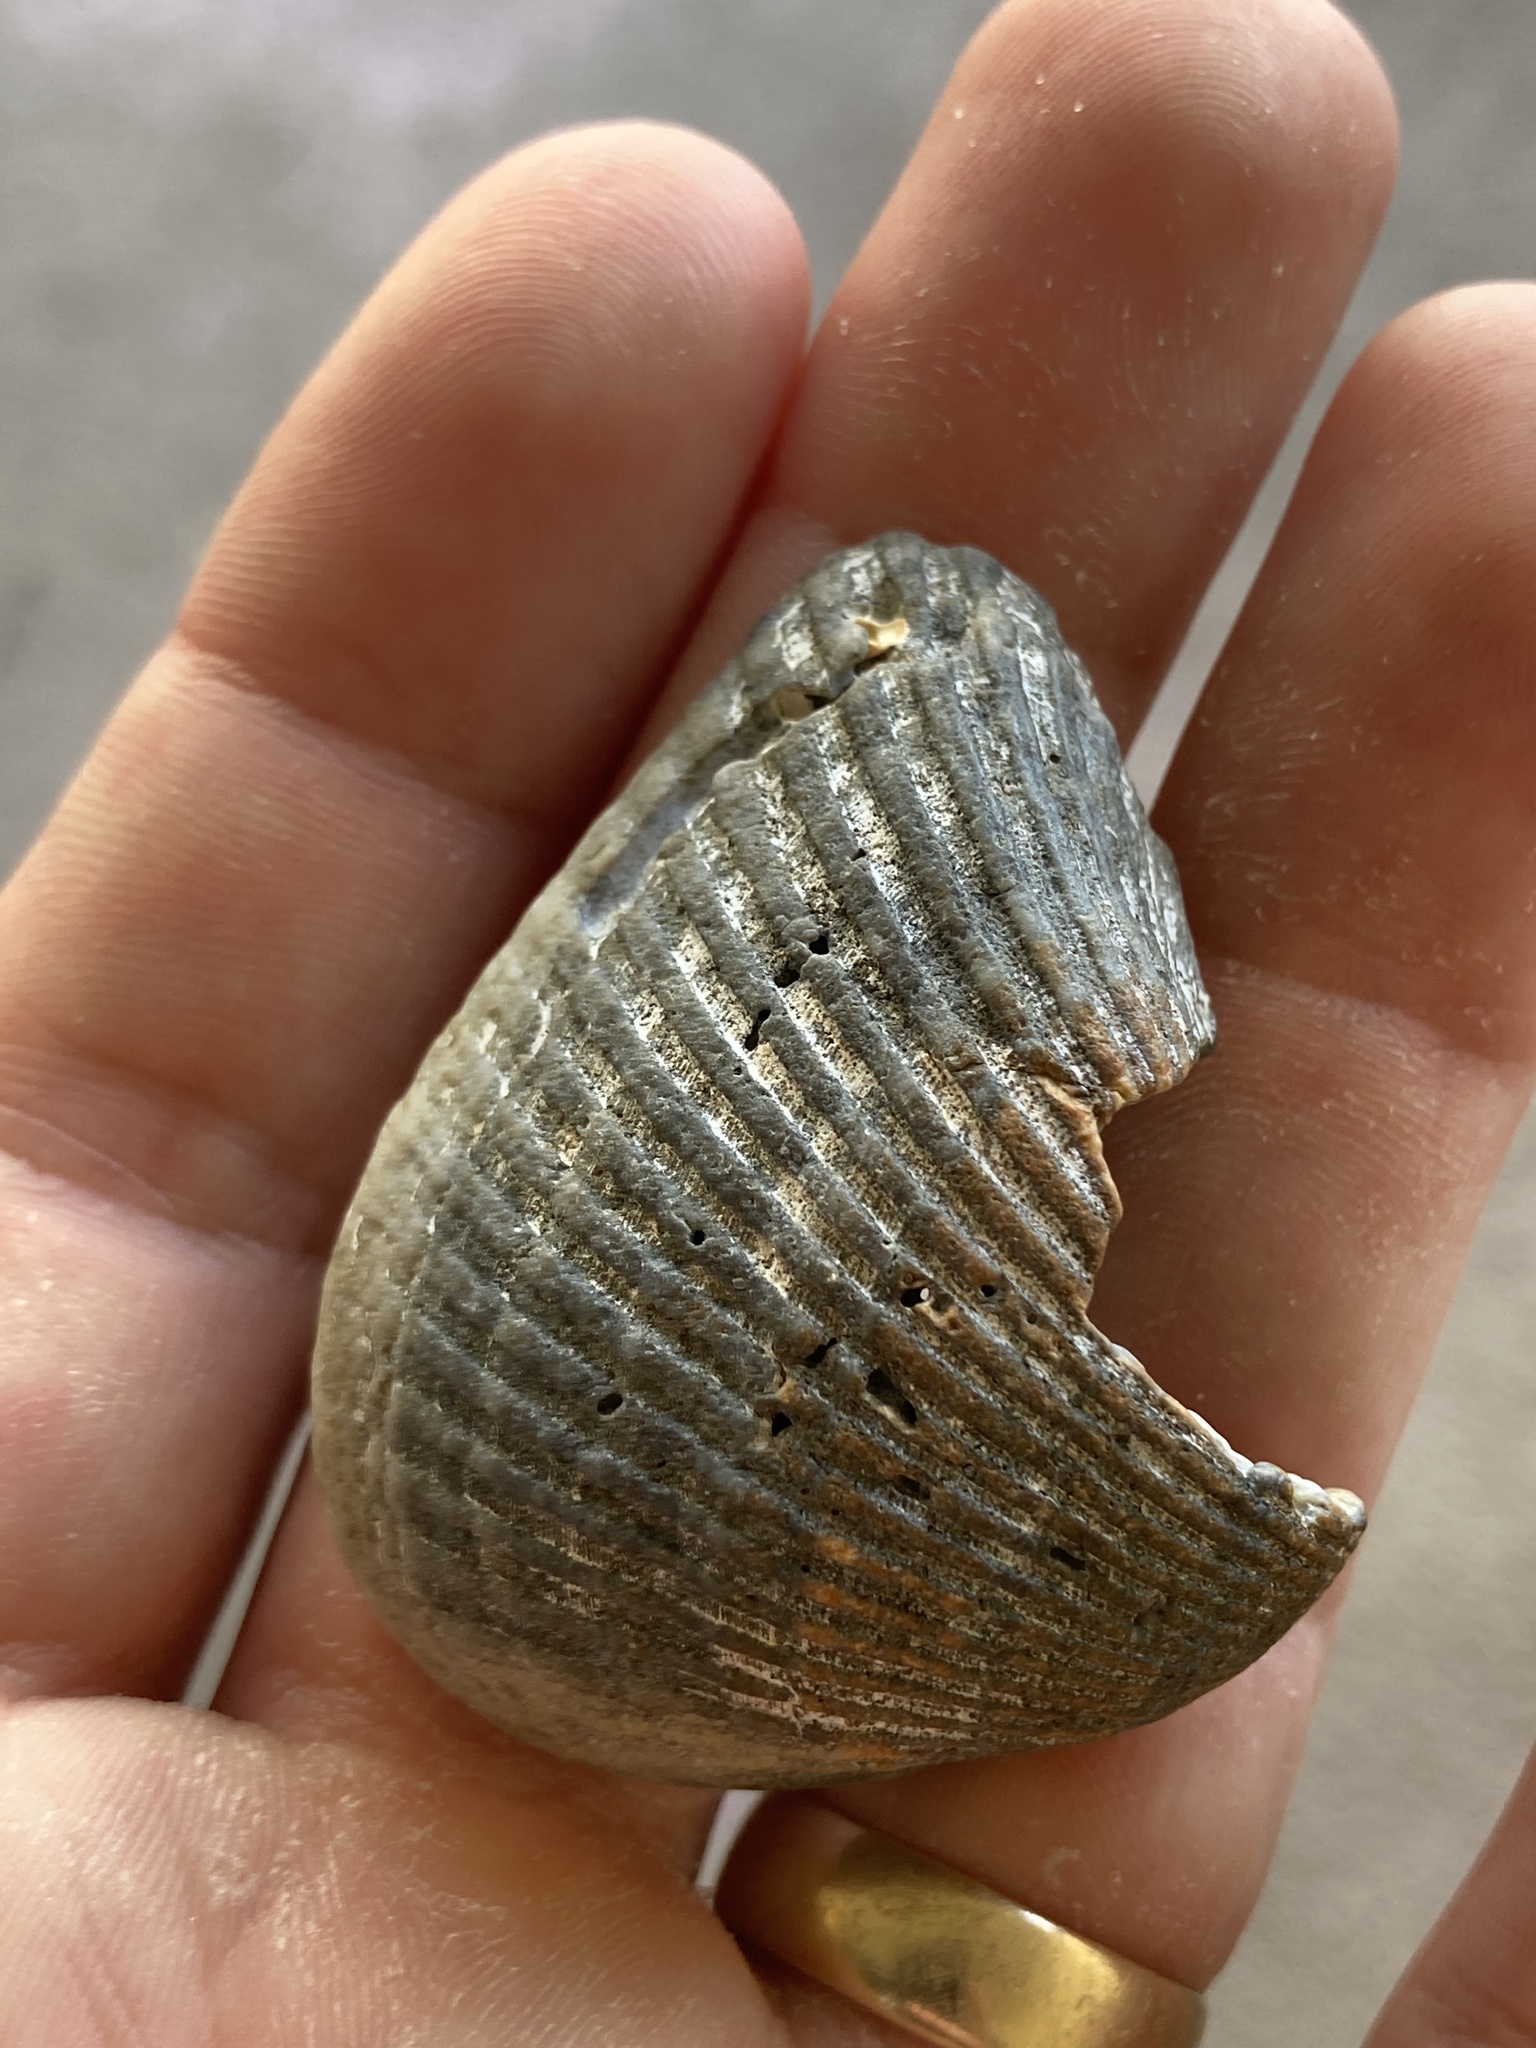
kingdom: Animalia
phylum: Mollusca
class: Bivalvia
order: Arcida
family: Noetiidae
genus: Noetia
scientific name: Noetia ponderosa
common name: Ponderous ark
